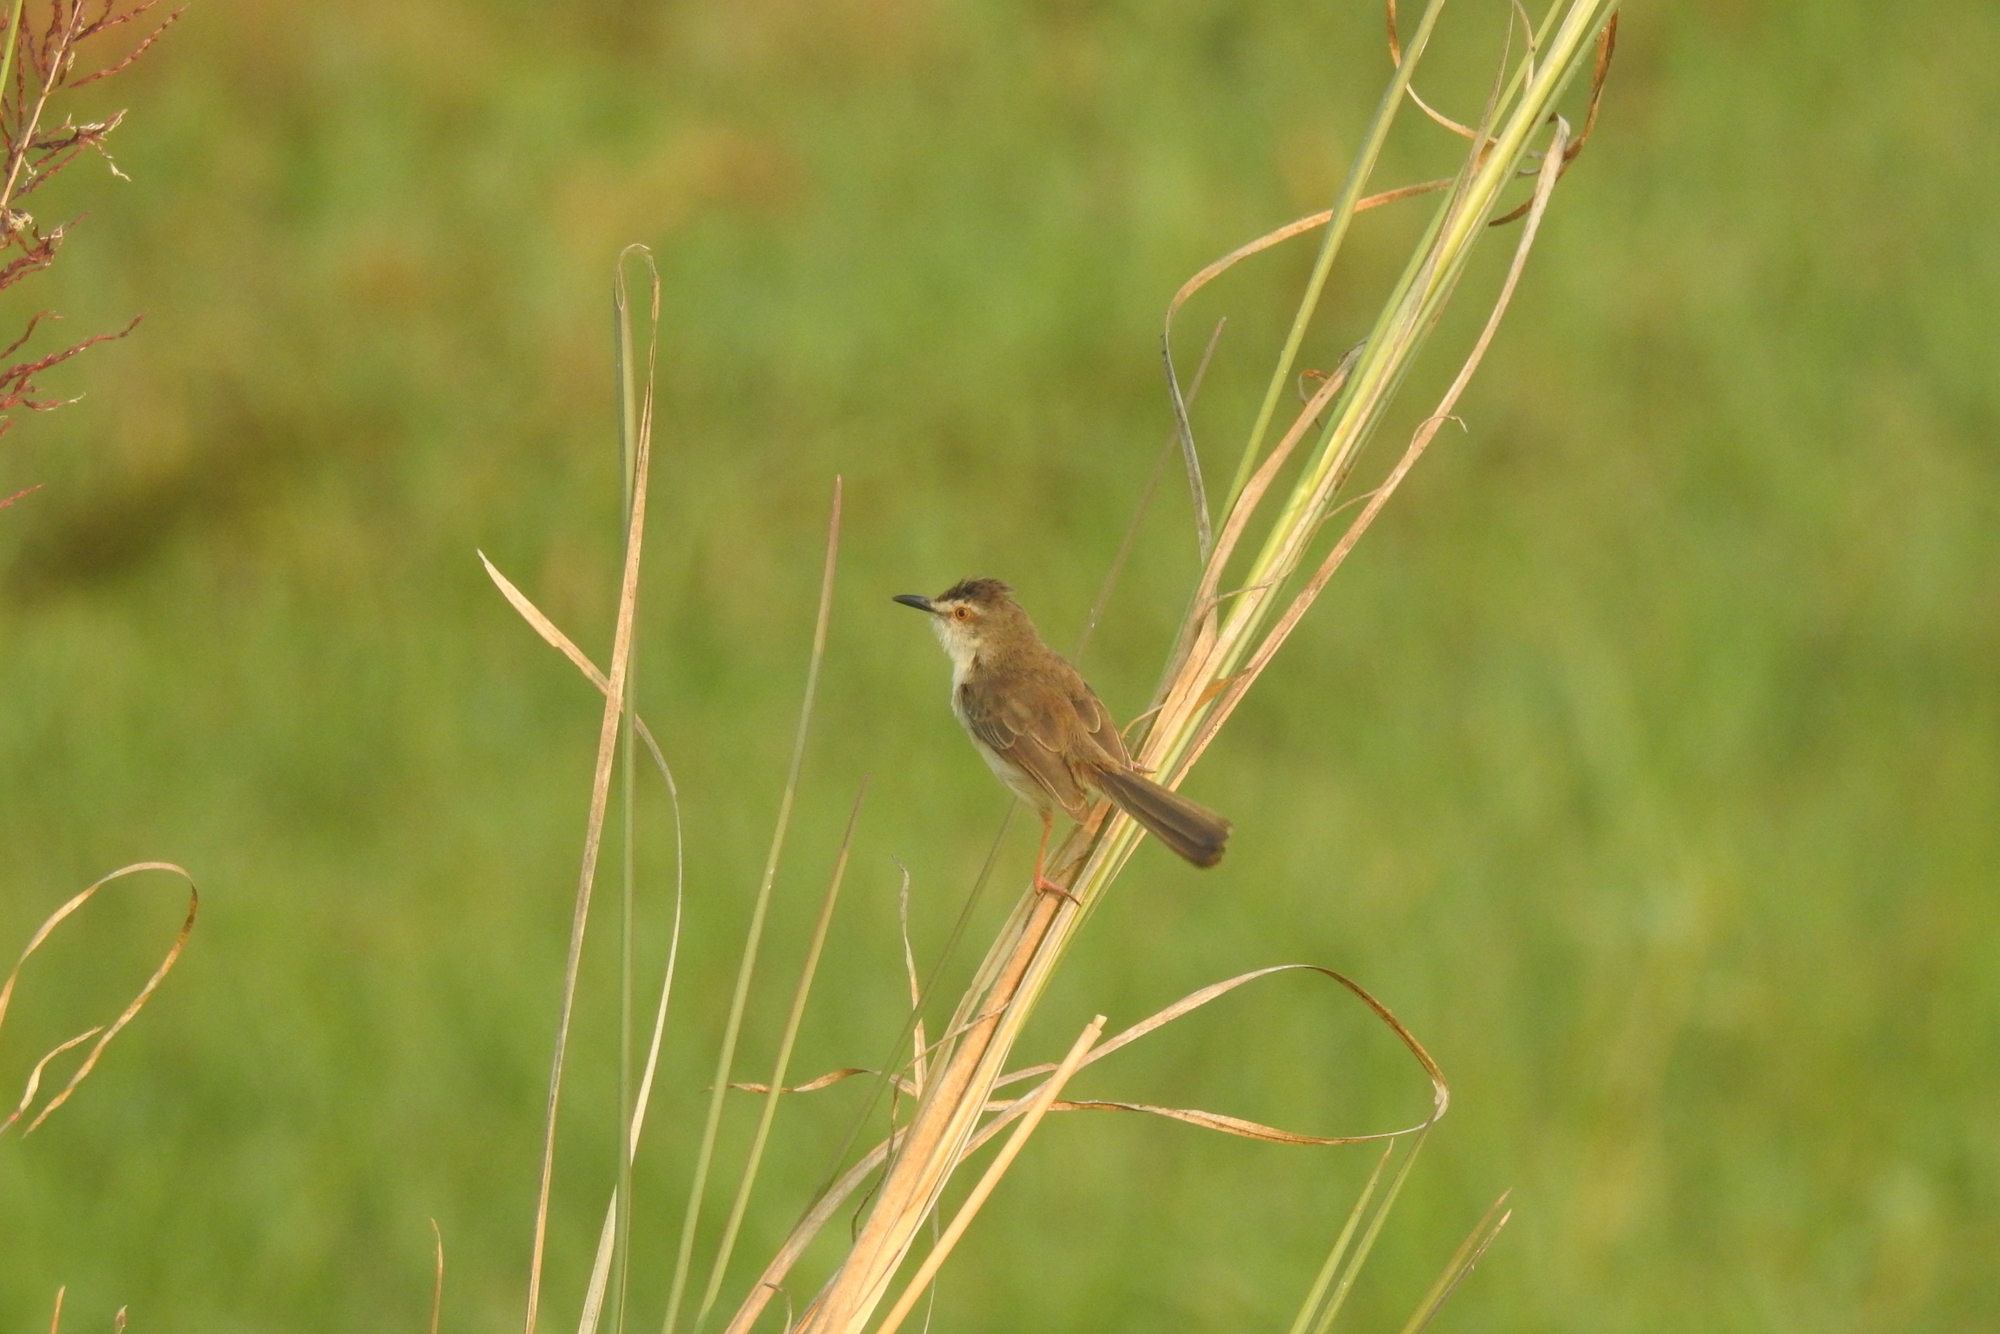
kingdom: Animalia
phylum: Chordata
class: Aves
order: Passeriformes
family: Cisticolidae
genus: Prinia
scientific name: Prinia inornata
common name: Plain prinia
